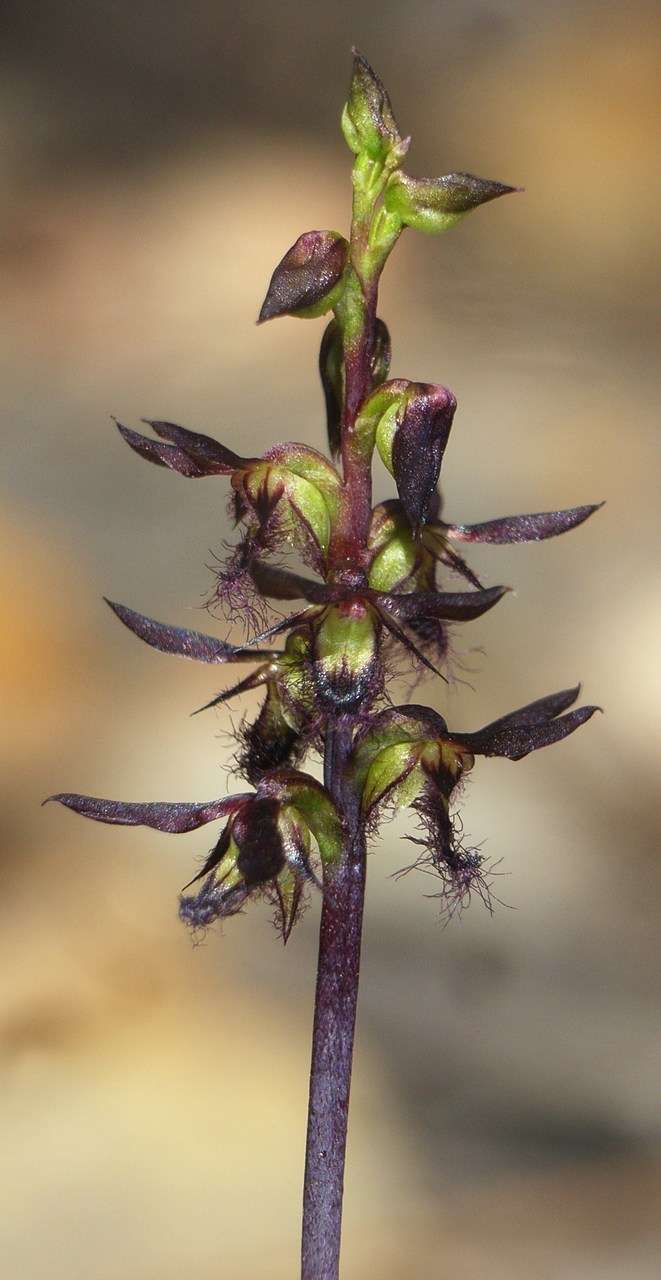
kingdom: Plantae
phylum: Tracheophyta
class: Liliopsida
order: Asparagales
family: Orchidaceae
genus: Genoplesium
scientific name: Genoplesium morrisii
